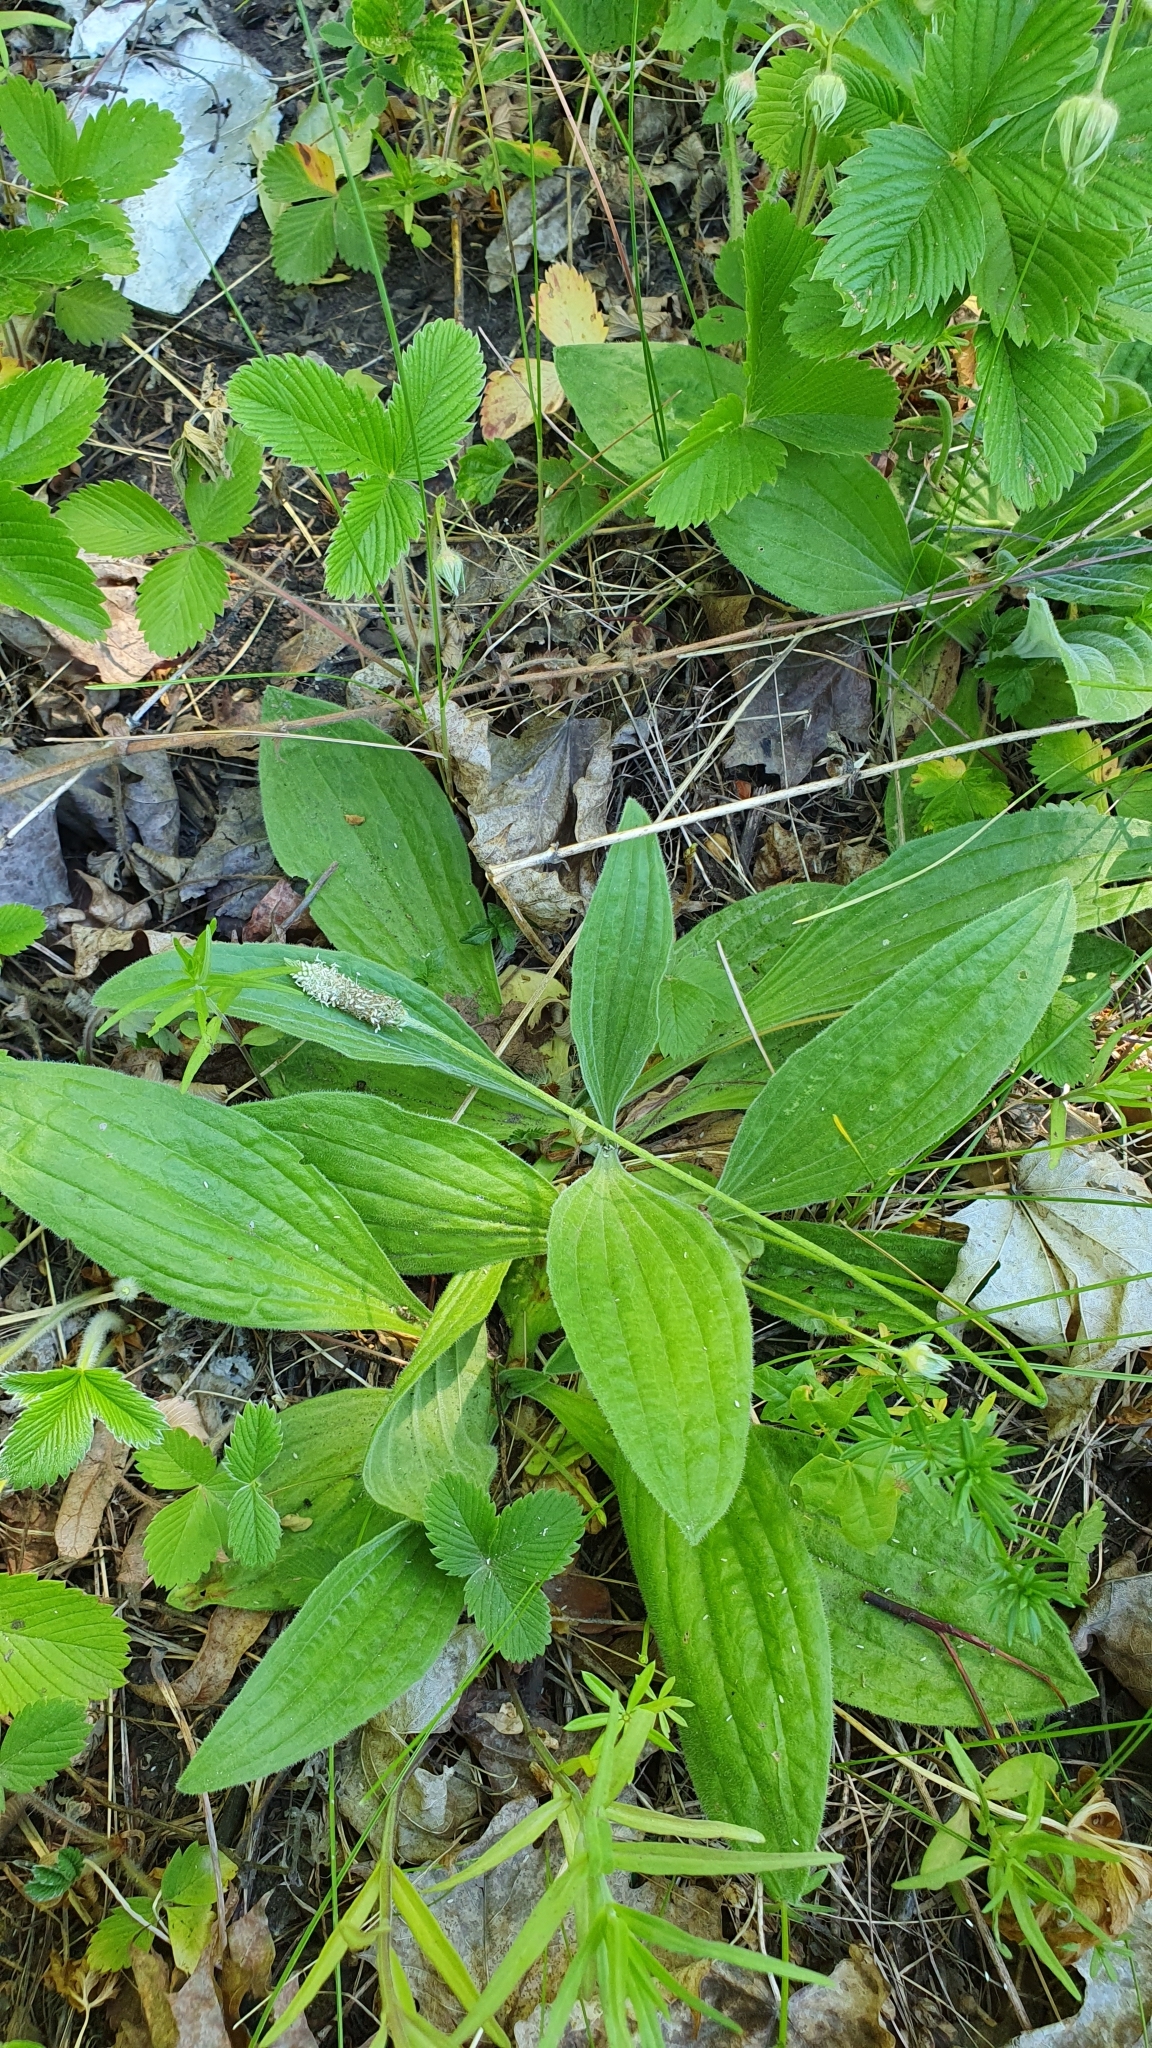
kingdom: Plantae
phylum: Tracheophyta
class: Magnoliopsida
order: Lamiales
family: Plantaginaceae
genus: Plantago
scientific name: Plantago urvillei
